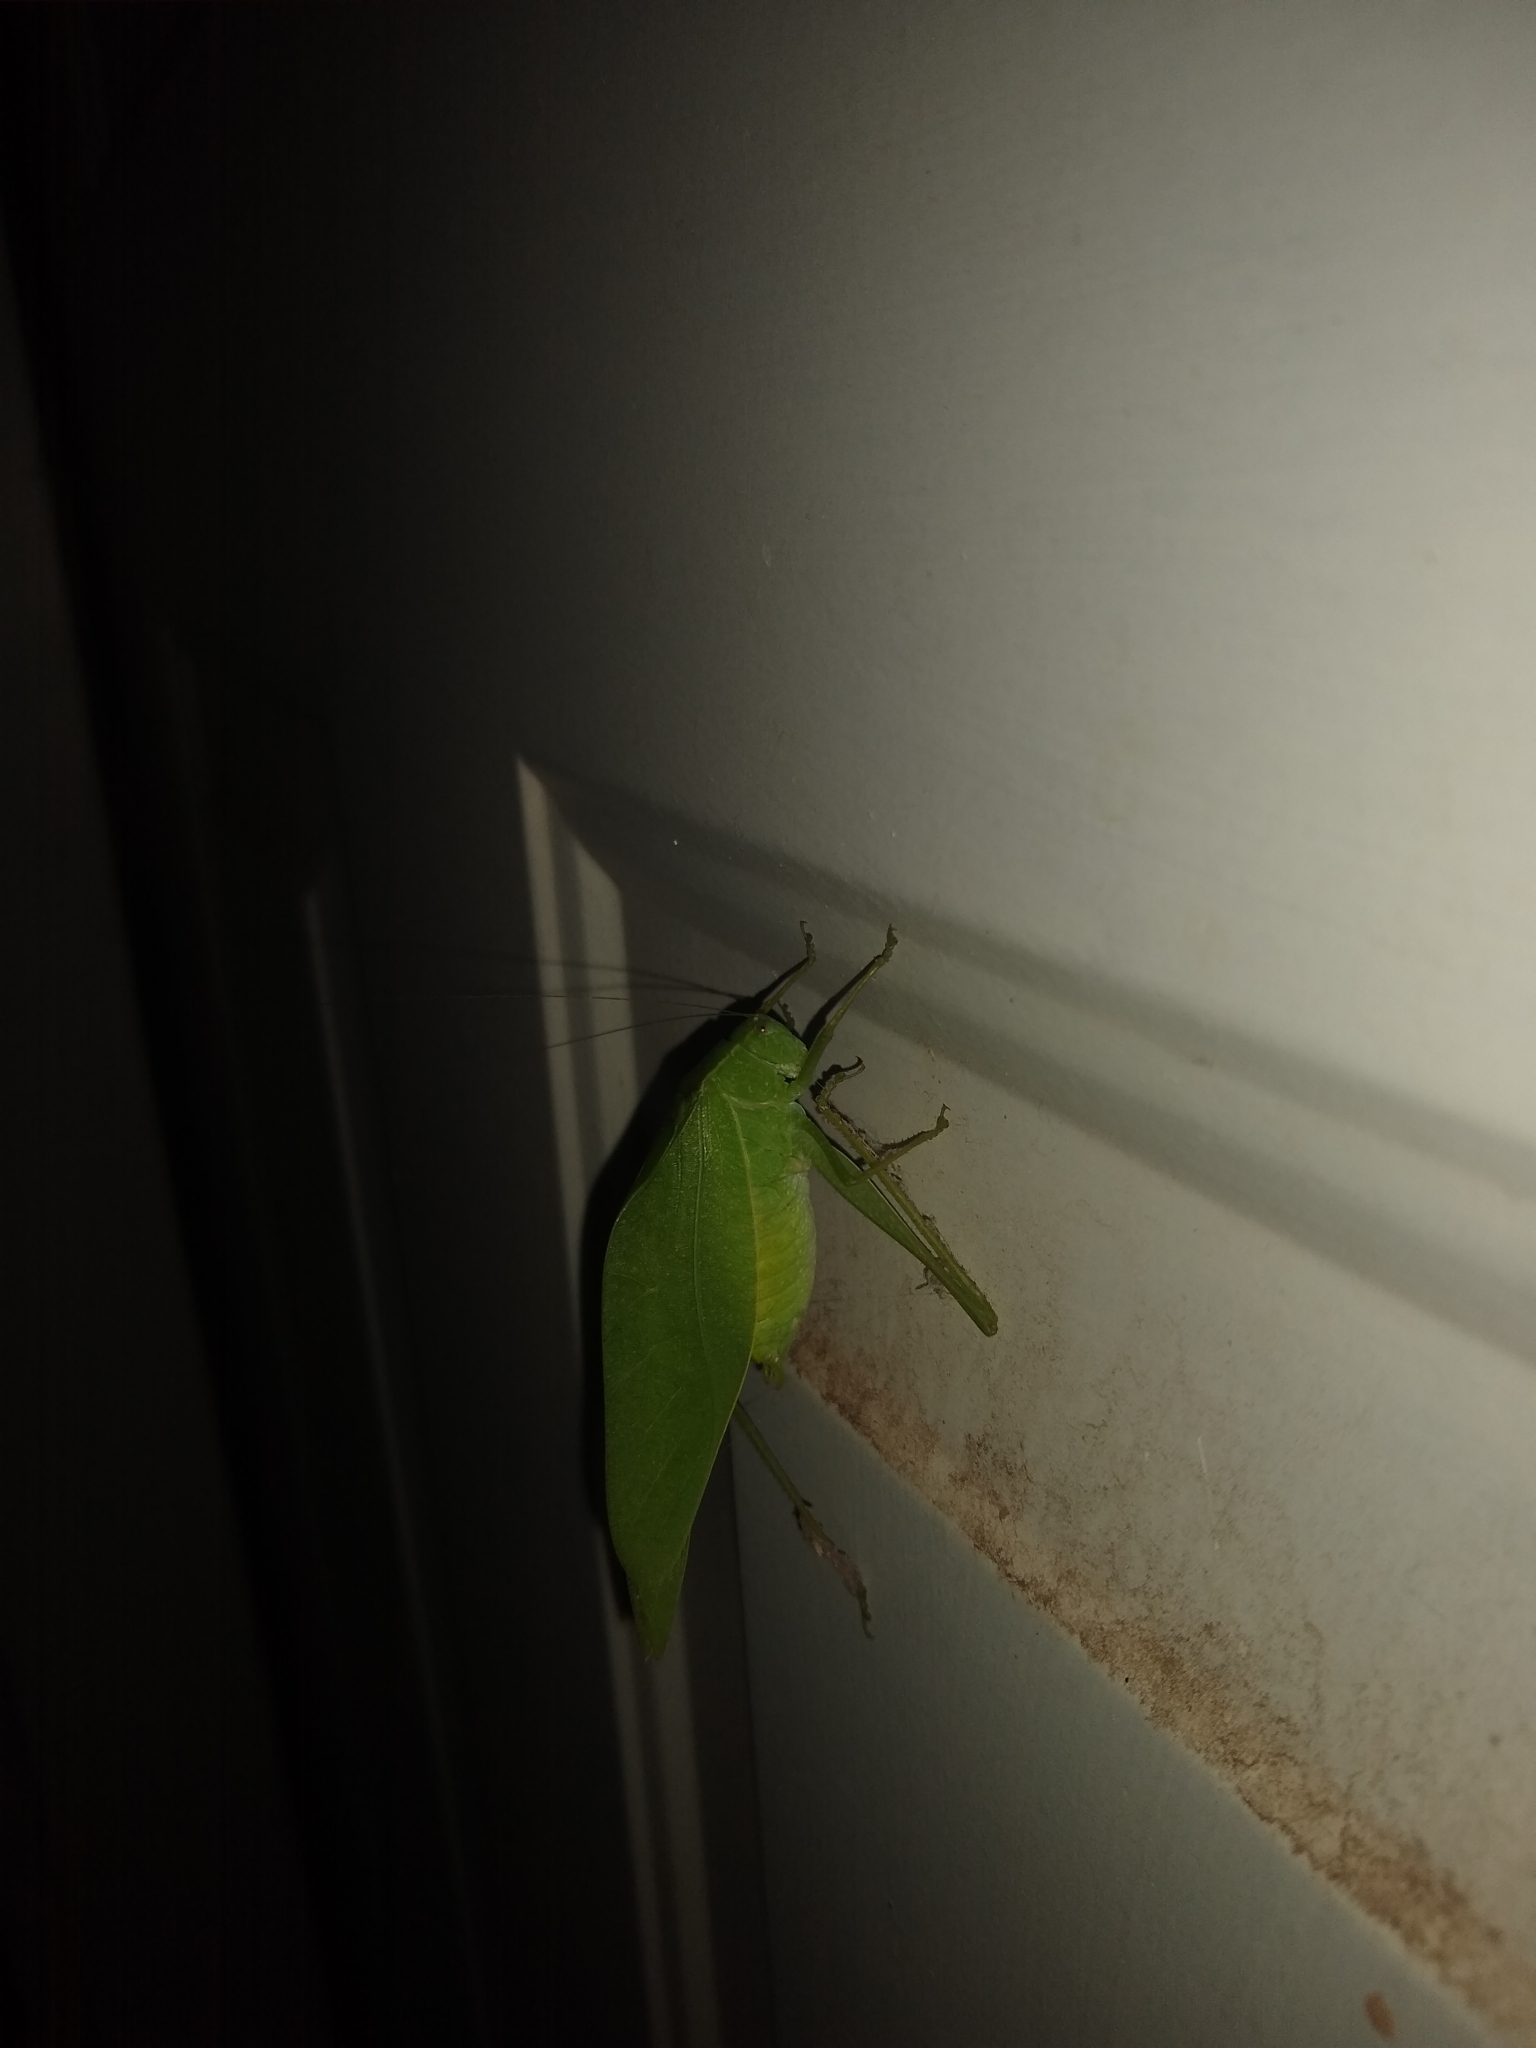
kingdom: Animalia
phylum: Arthropoda
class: Insecta
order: Orthoptera
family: Tettigoniidae
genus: Microcentrum
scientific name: Microcentrum rhombifolium
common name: Broad-winged katydid
